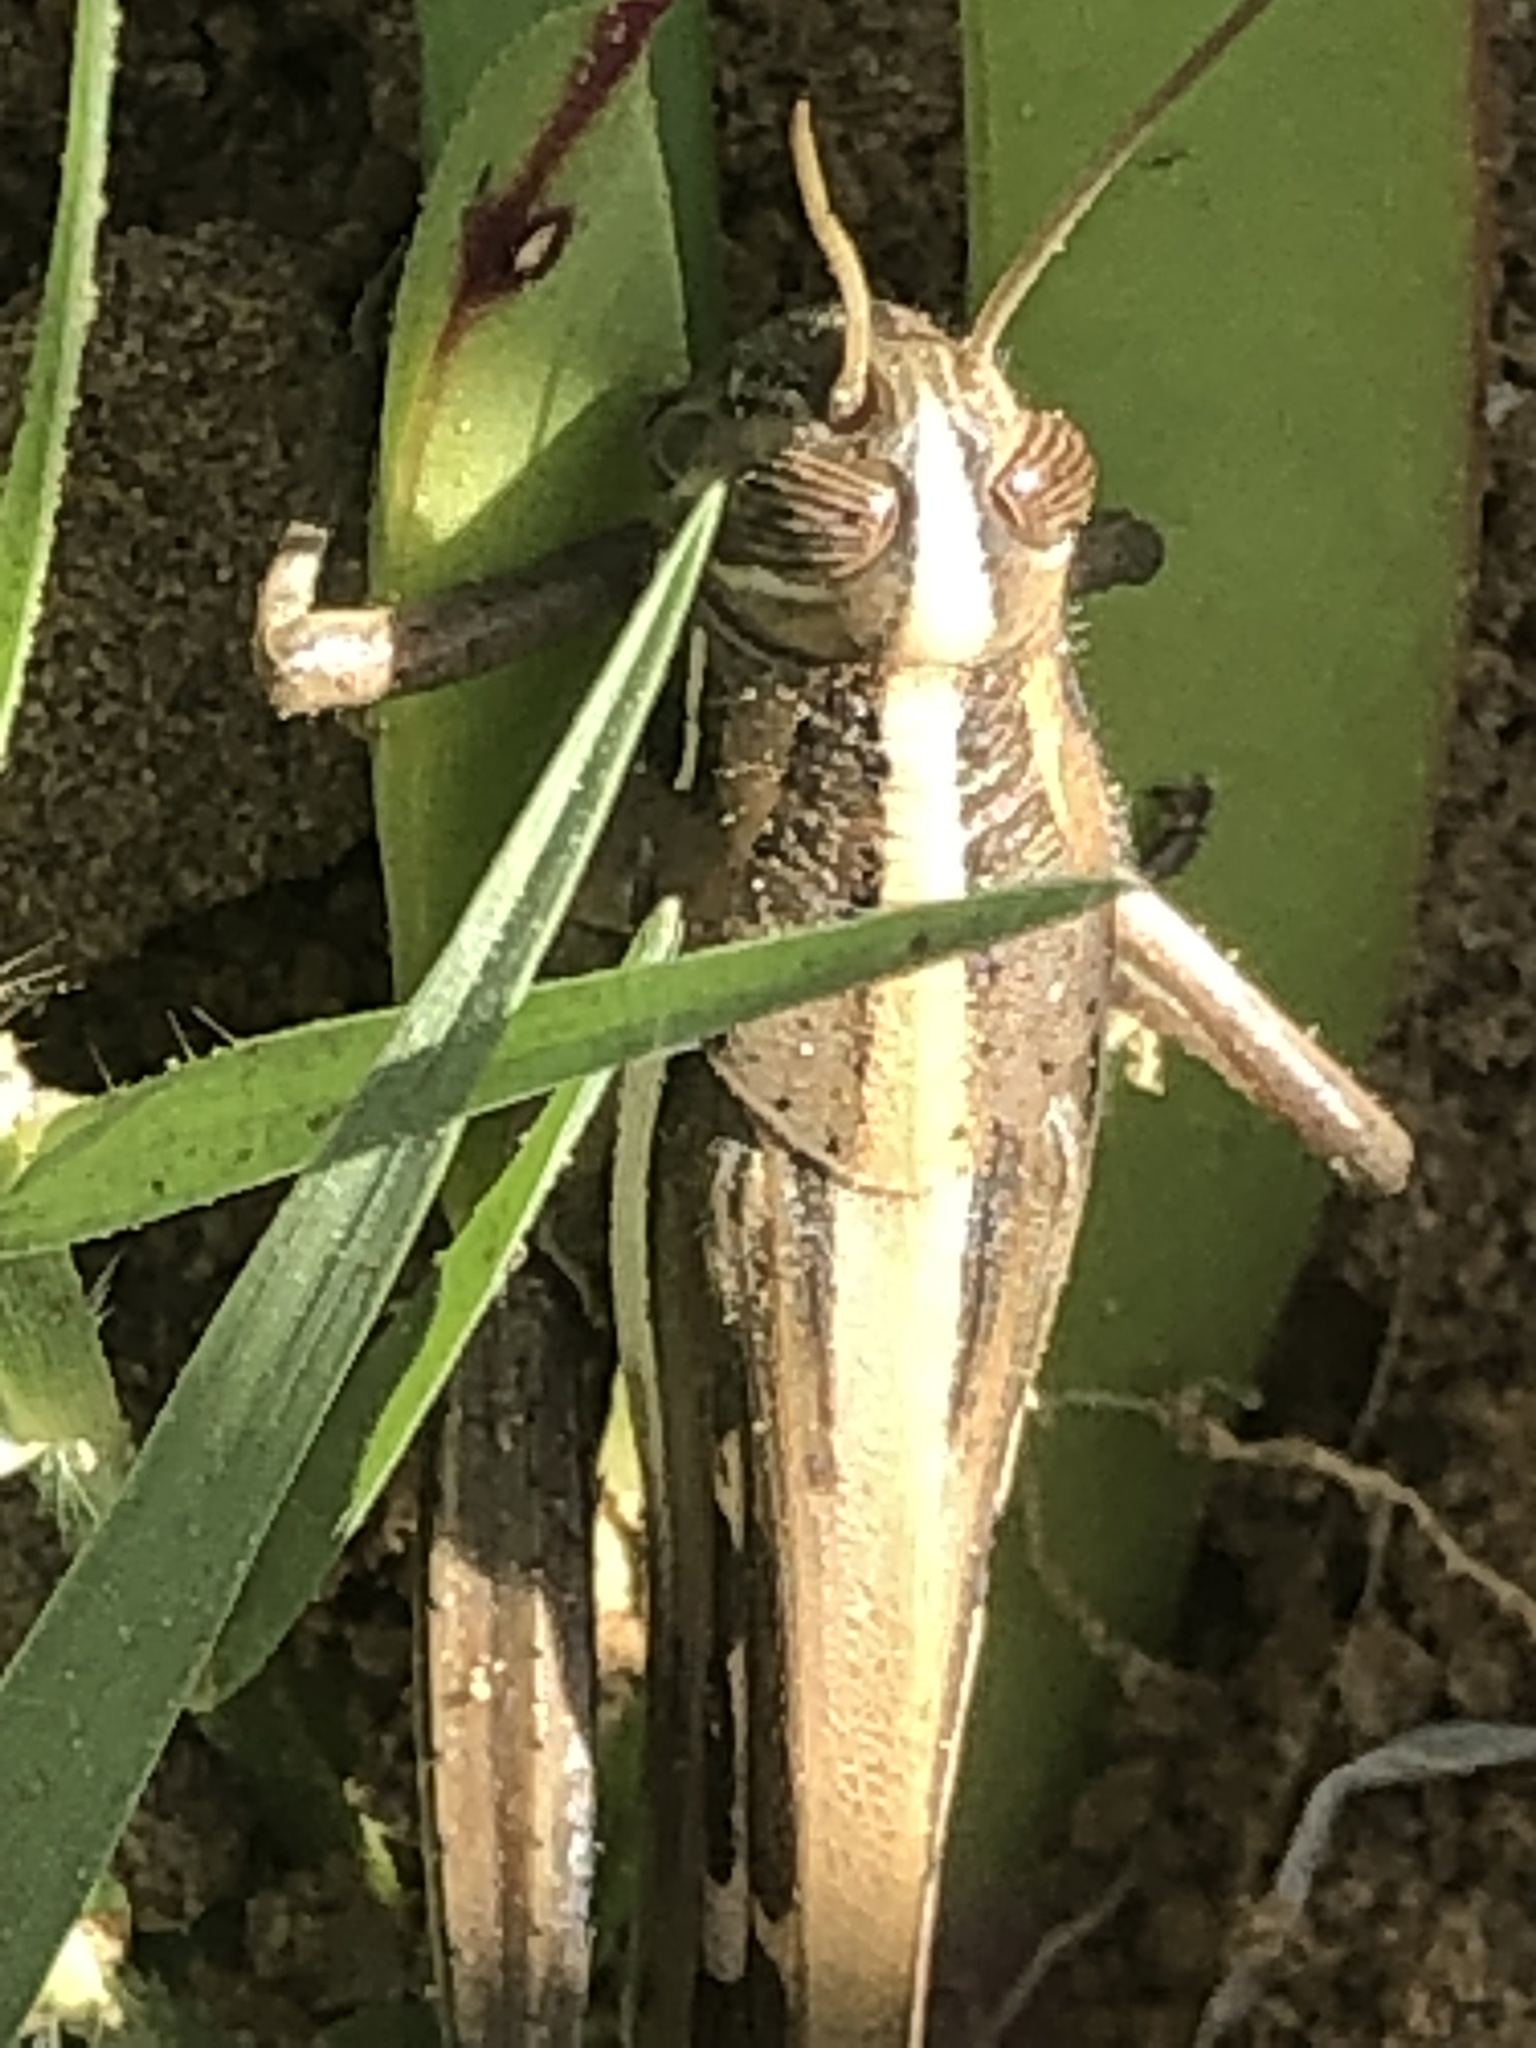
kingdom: Animalia
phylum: Arthropoda
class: Insecta
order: Orthoptera
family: Acrididae
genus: Schistocerca
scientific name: Schistocerca cancellata
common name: South american locust
